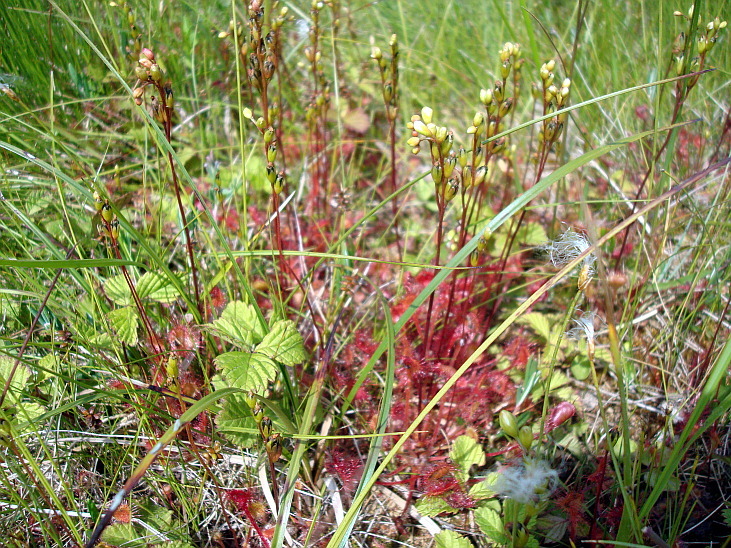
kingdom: Plantae
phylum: Tracheophyta
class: Magnoliopsida
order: Caryophyllales
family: Droseraceae
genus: Drosera
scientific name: Drosera rotundifolia
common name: Round-leaved sundew
